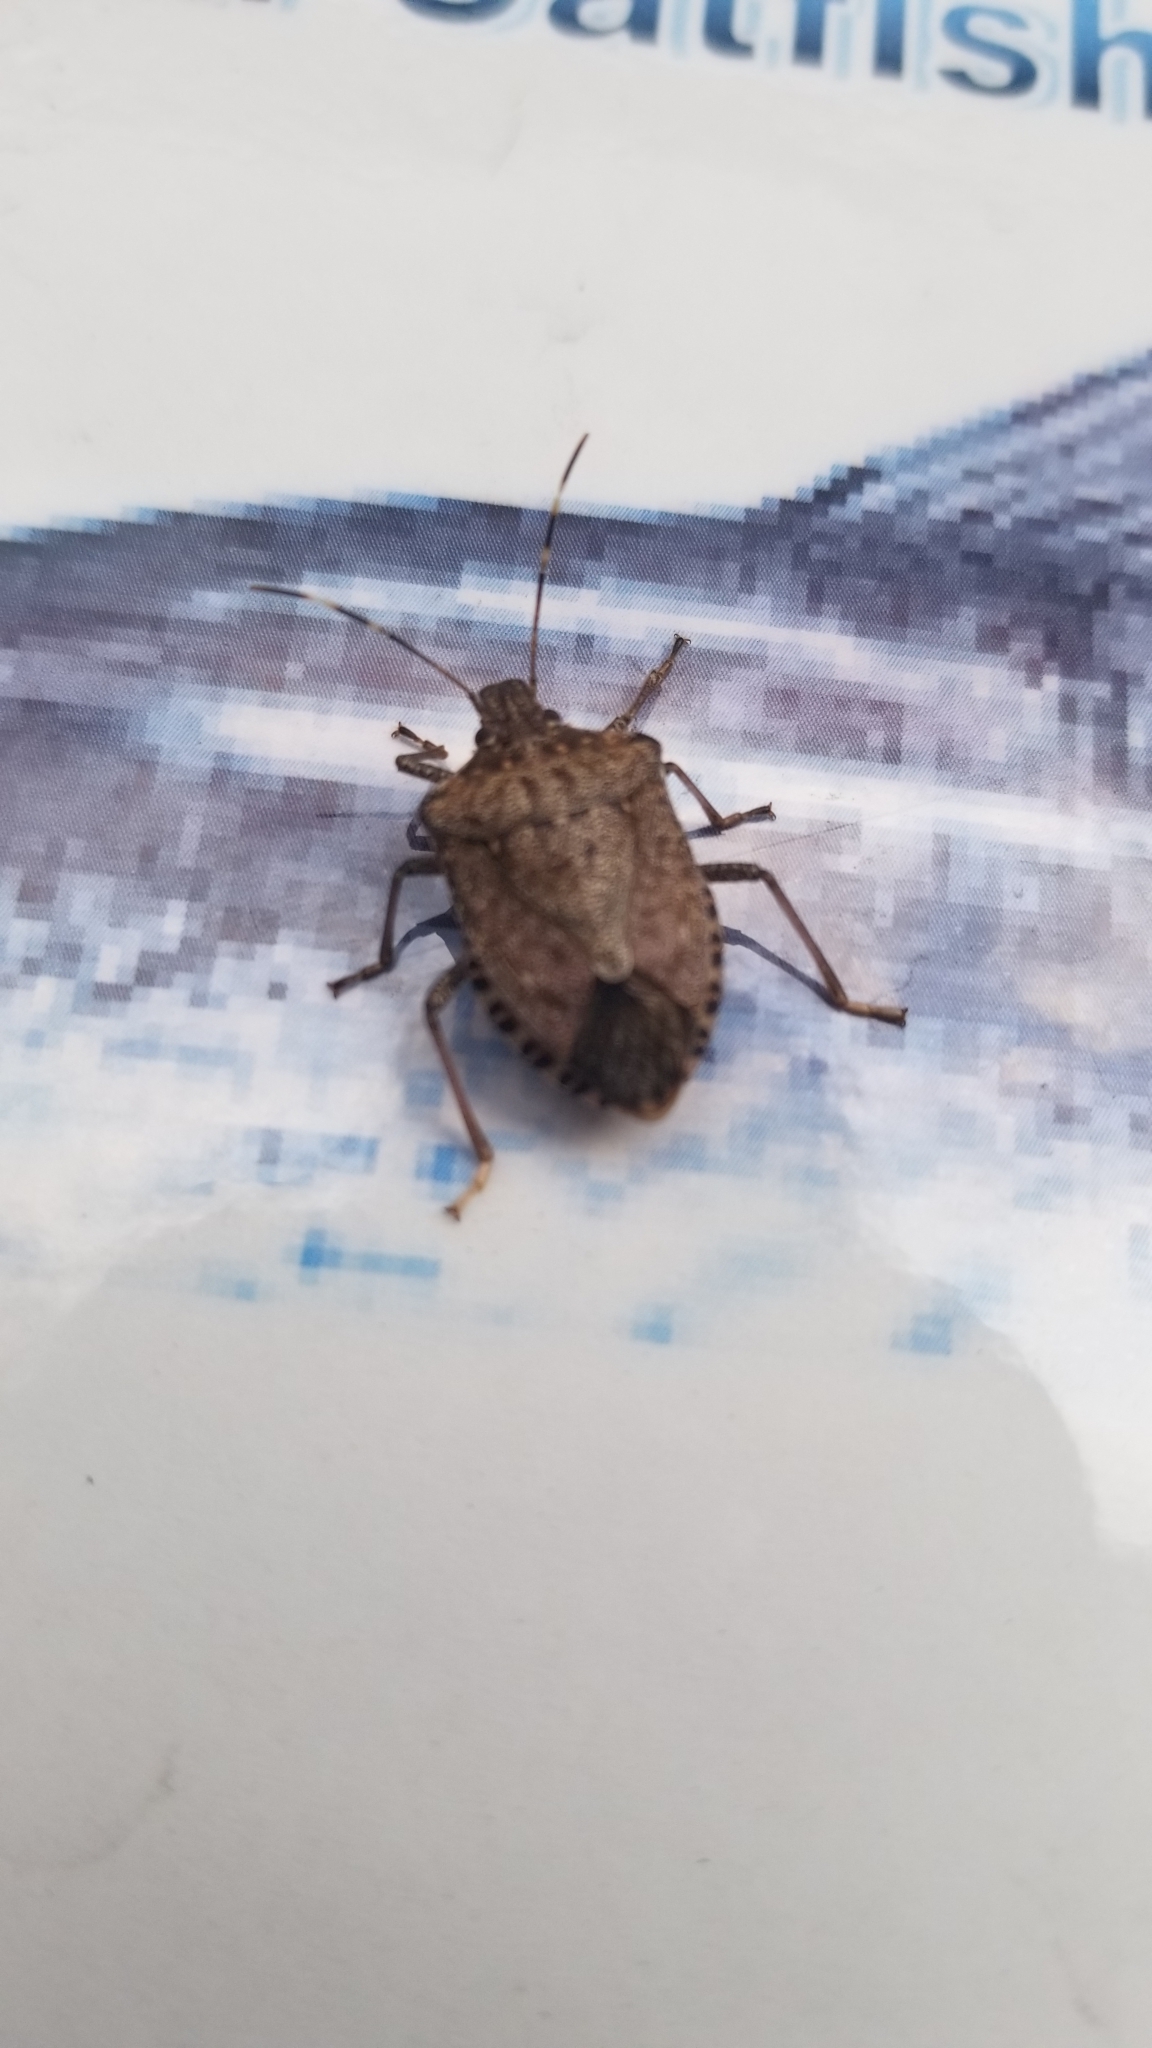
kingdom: Animalia
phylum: Arthropoda
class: Insecta
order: Hemiptera
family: Pentatomidae
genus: Halyomorpha
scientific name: Halyomorpha halys
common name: Brown marmorated stink bug
